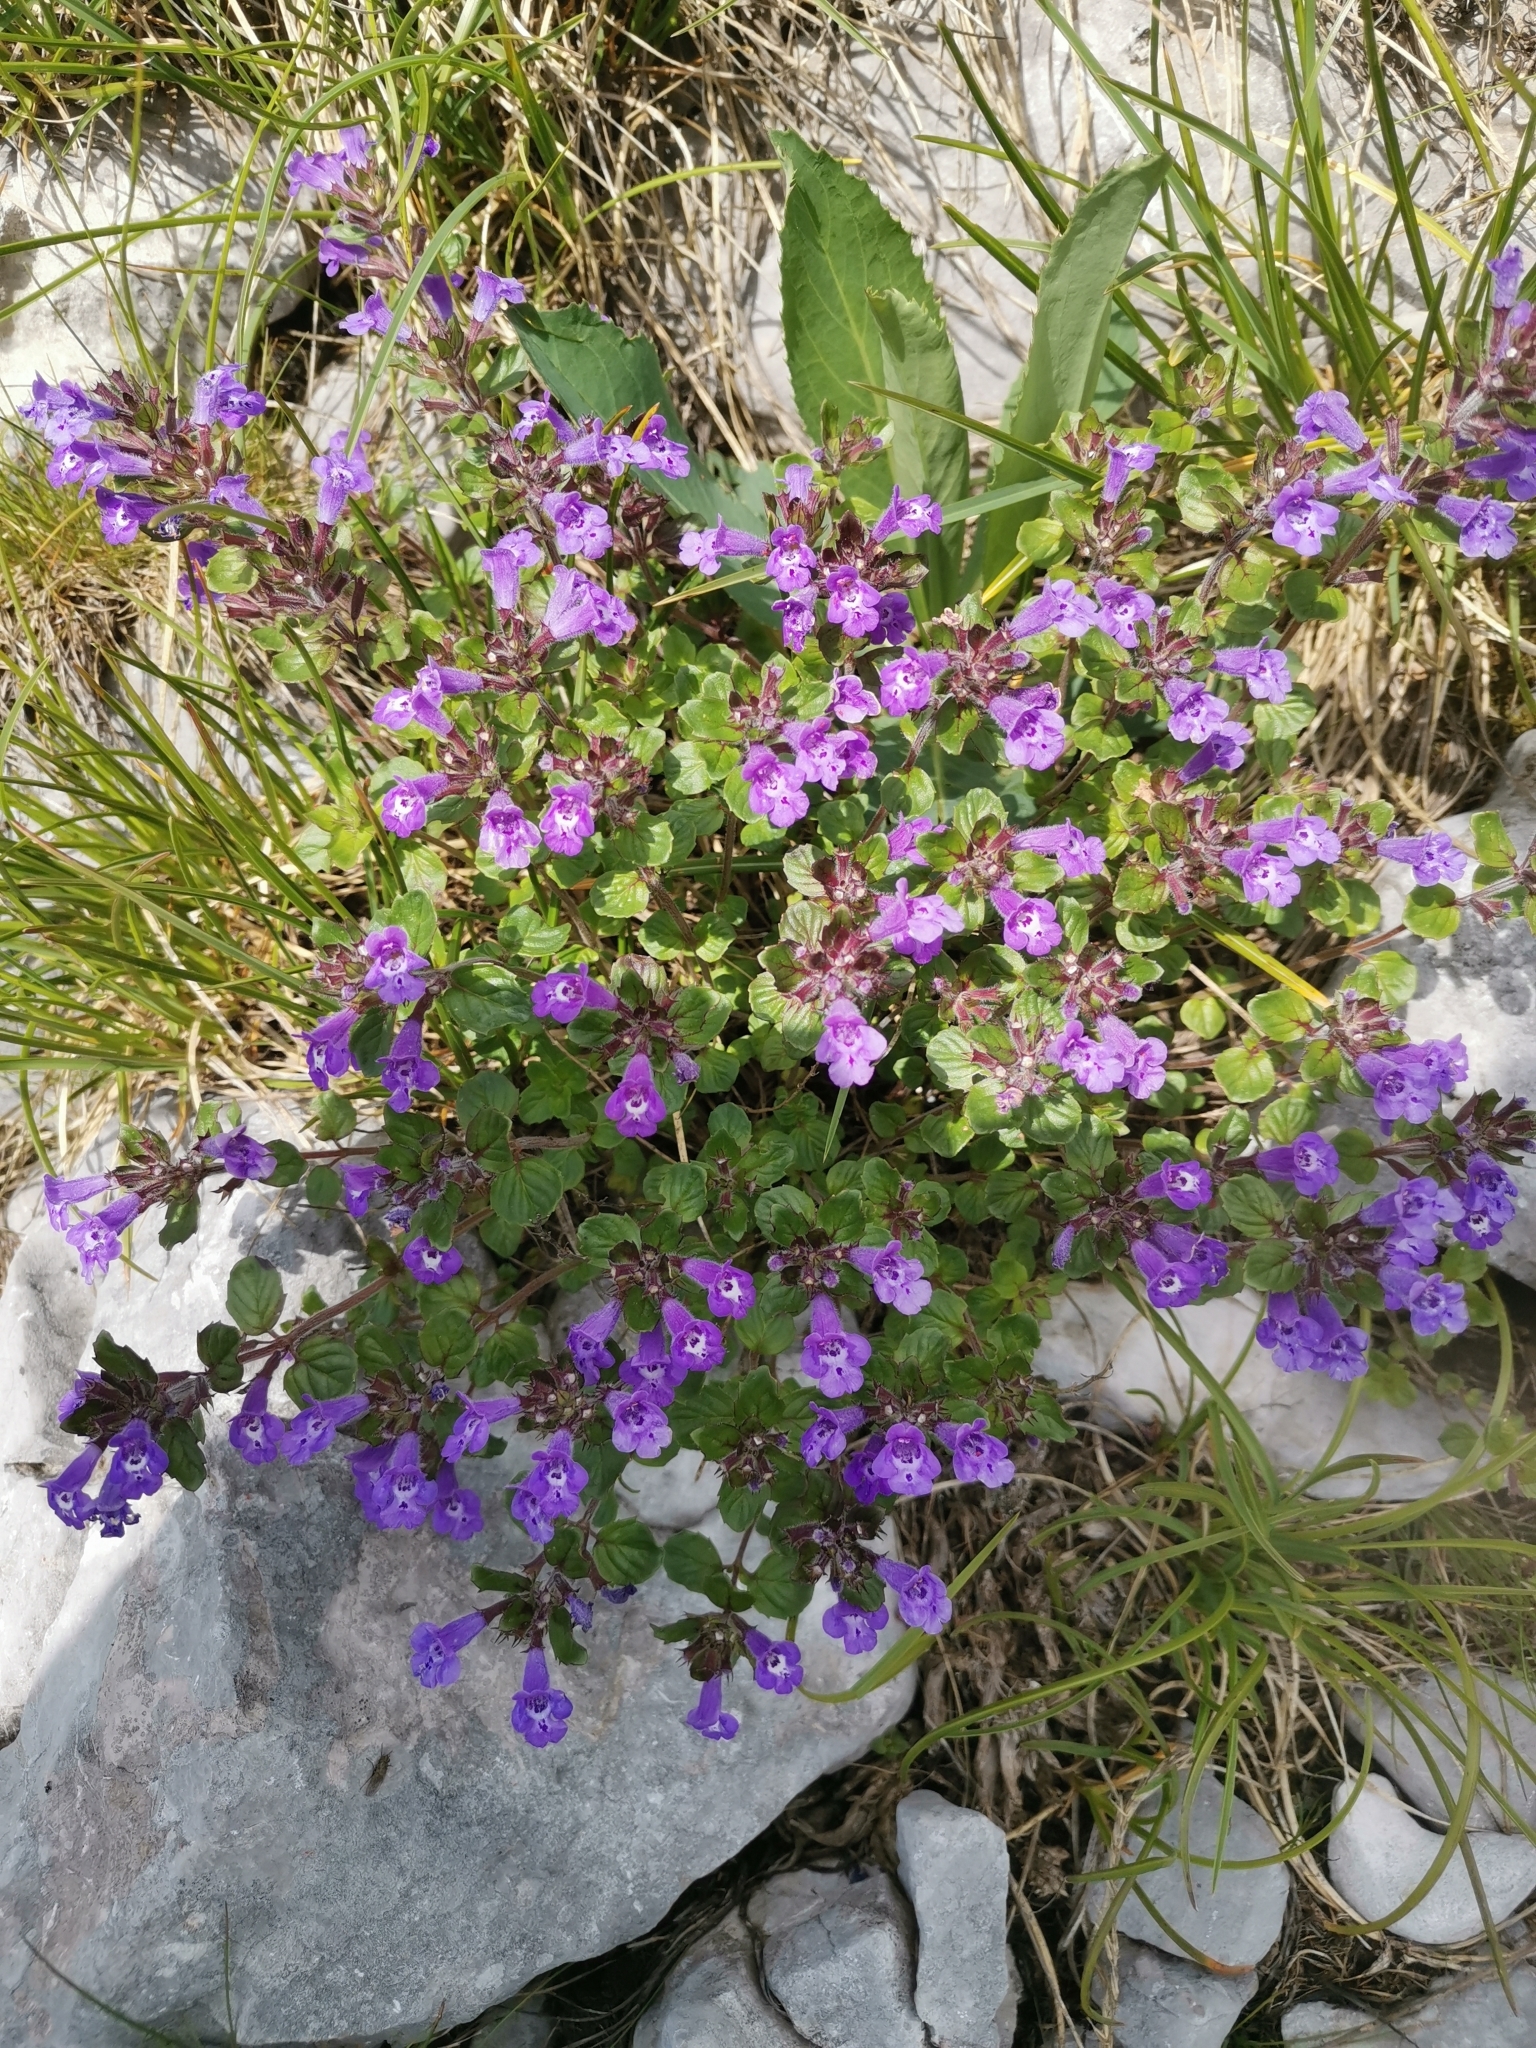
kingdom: Plantae
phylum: Tracheophyta
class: Magnoliopsida
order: Lamiales
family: Lamiaceae
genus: Clinopodium
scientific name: Clinopodium alpinum
